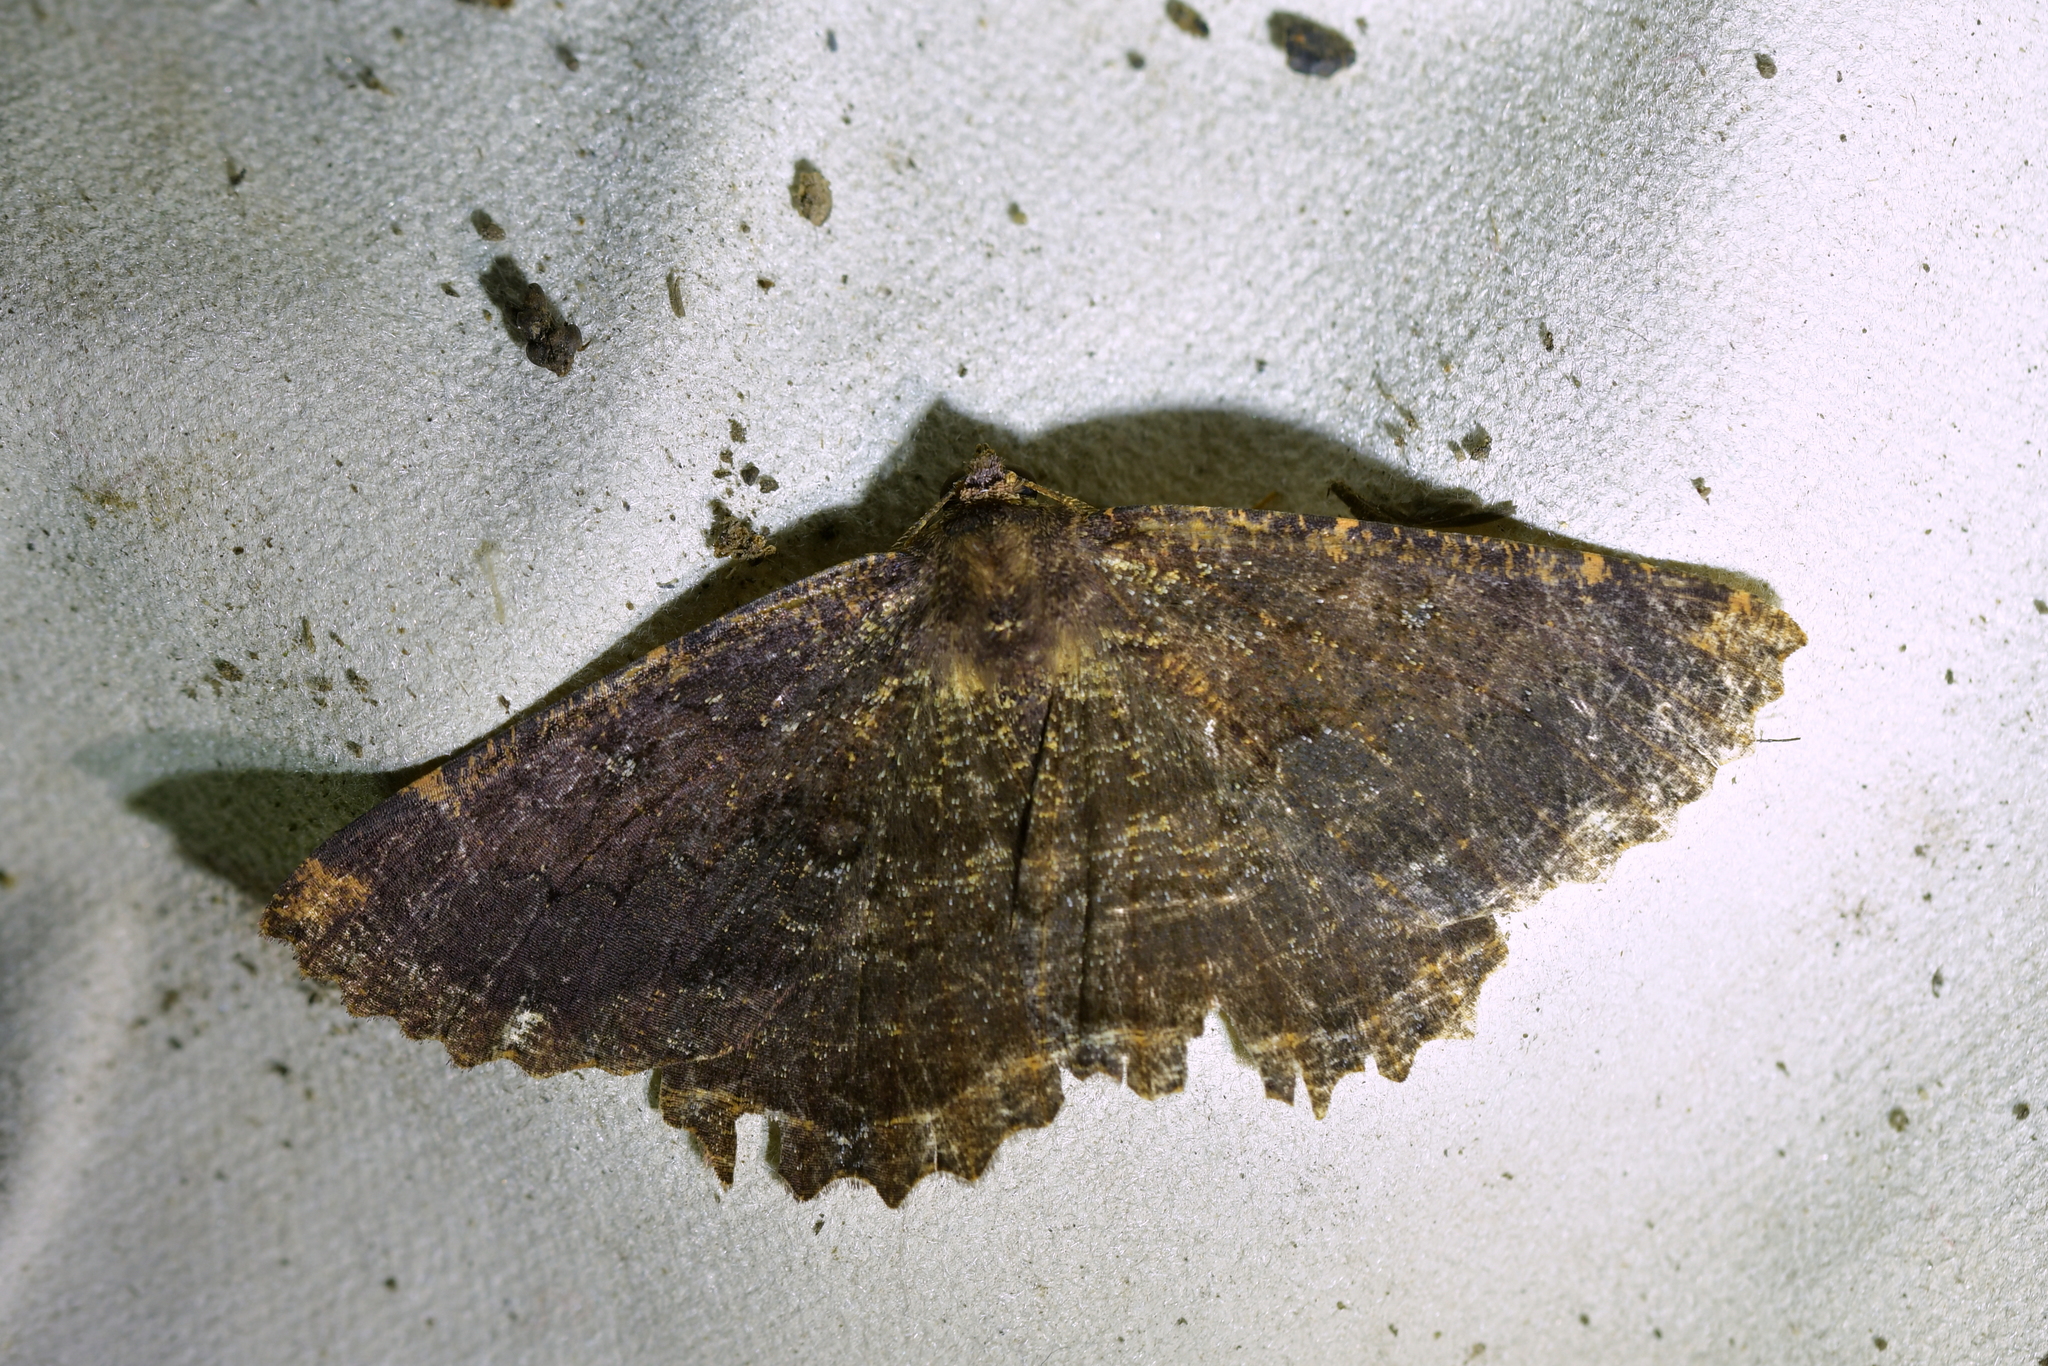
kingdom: Animalia
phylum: Arthropoda
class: Insecta
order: Lepidoptera
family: Geometridae
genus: Gellonia
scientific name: Gellonia dejectaria
